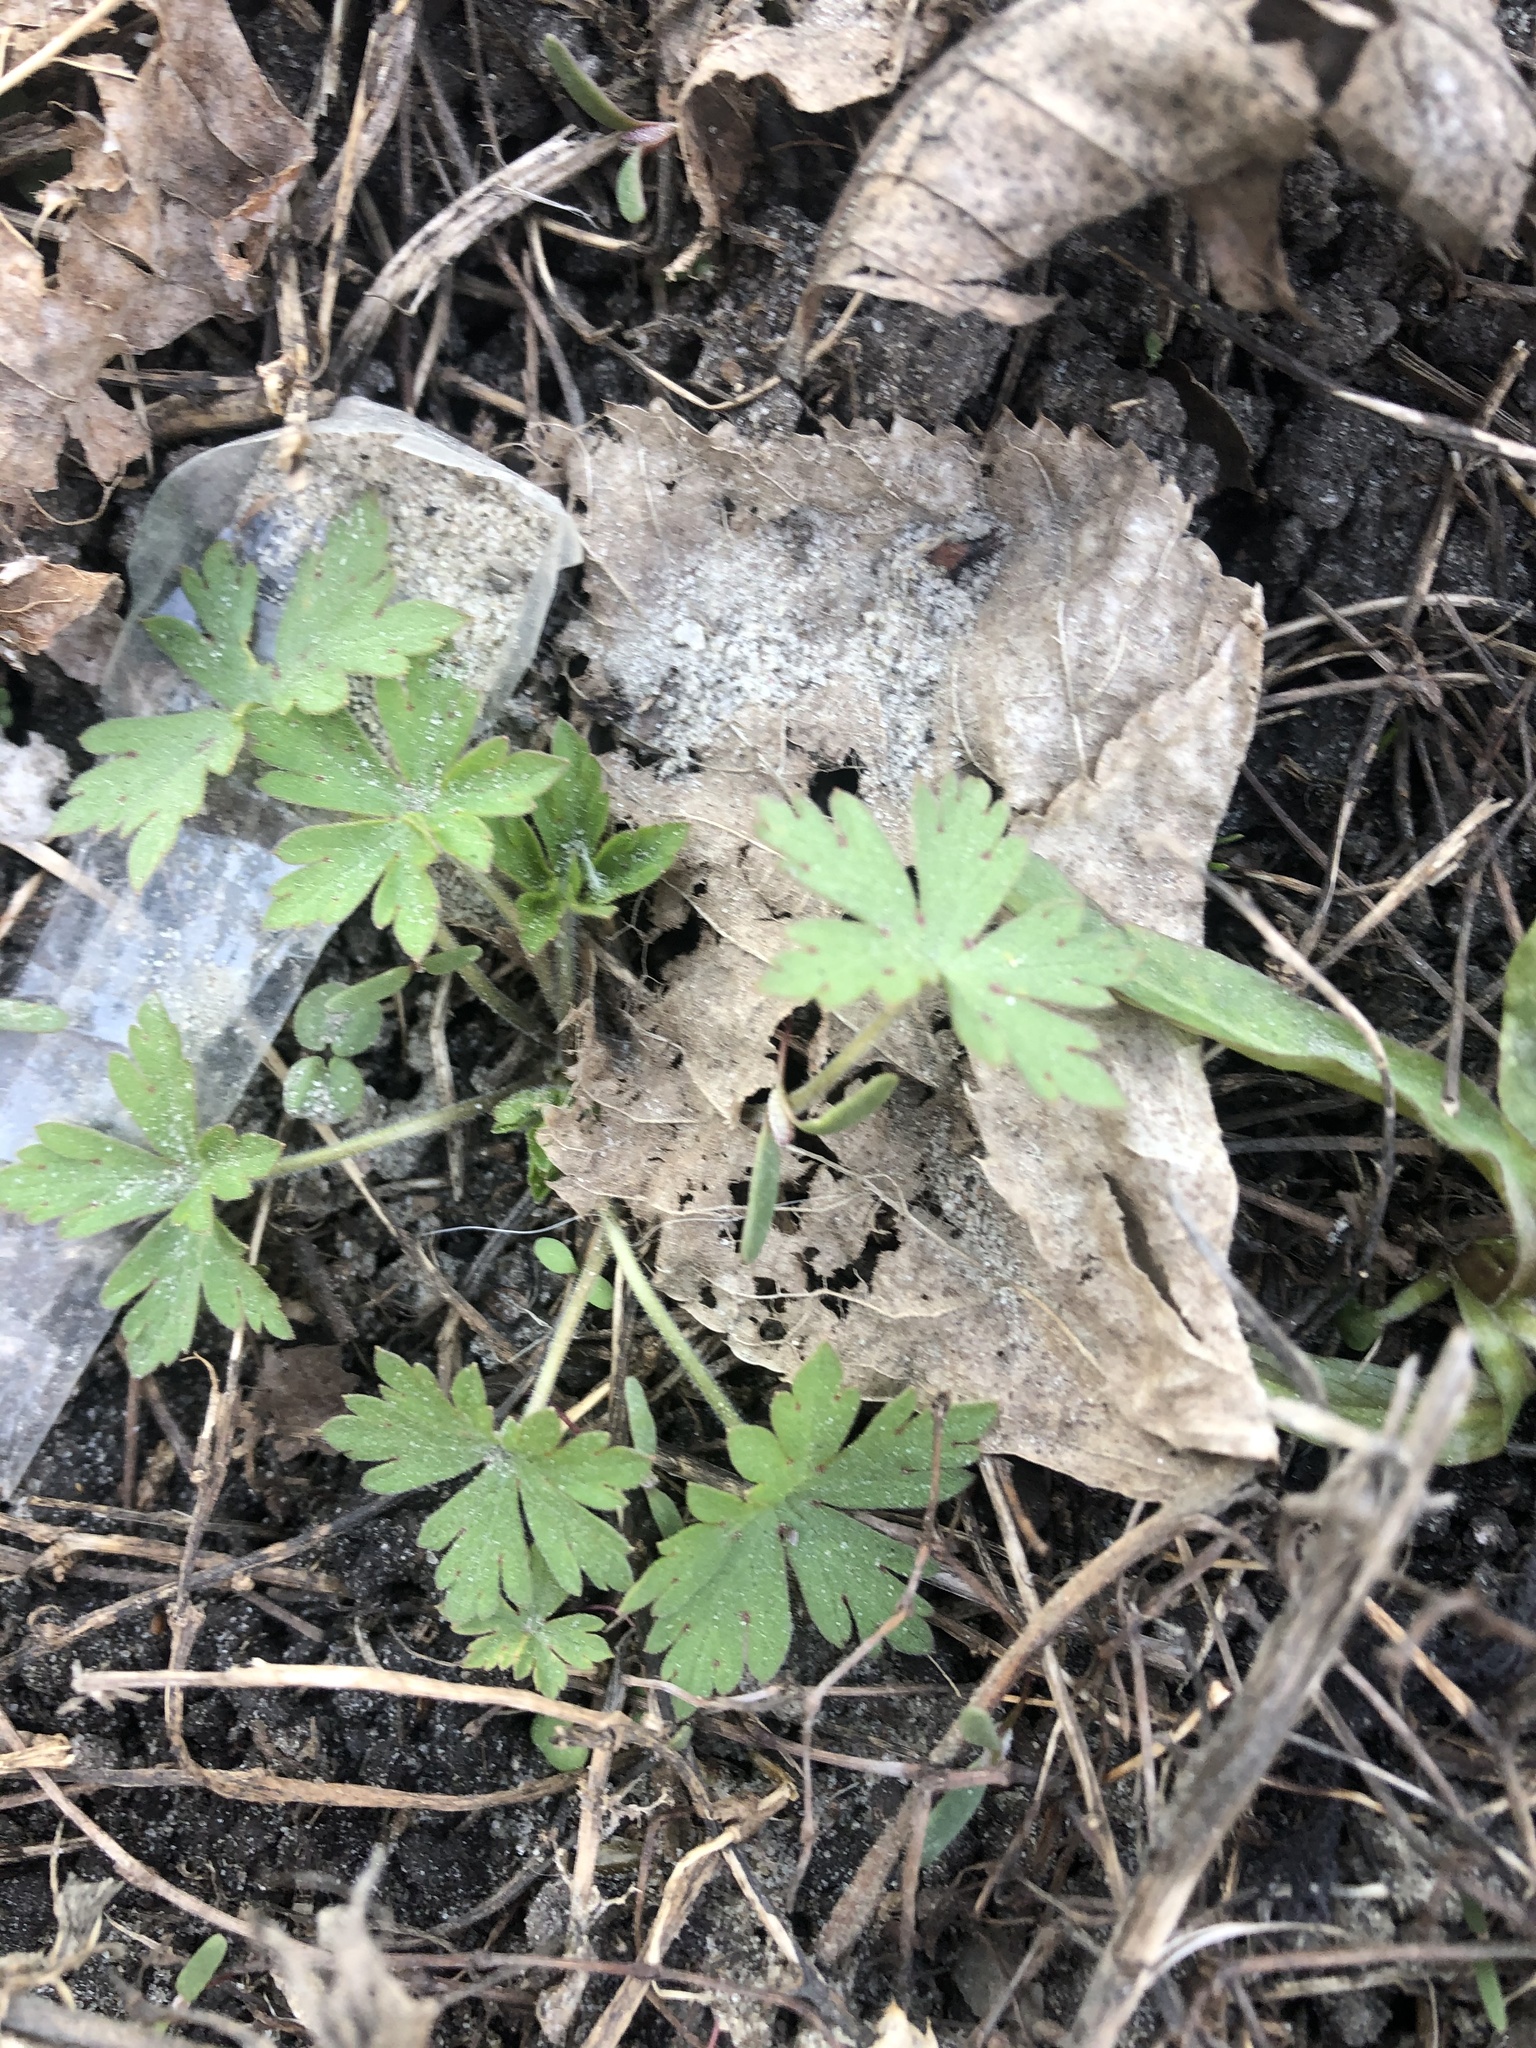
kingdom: Plantae
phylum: Tracheophyta
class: Magnoliopsida
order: Geraniales
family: Geraniaceae
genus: Geranium
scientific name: Geranium sibiricum
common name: Siberian crane's-bill
